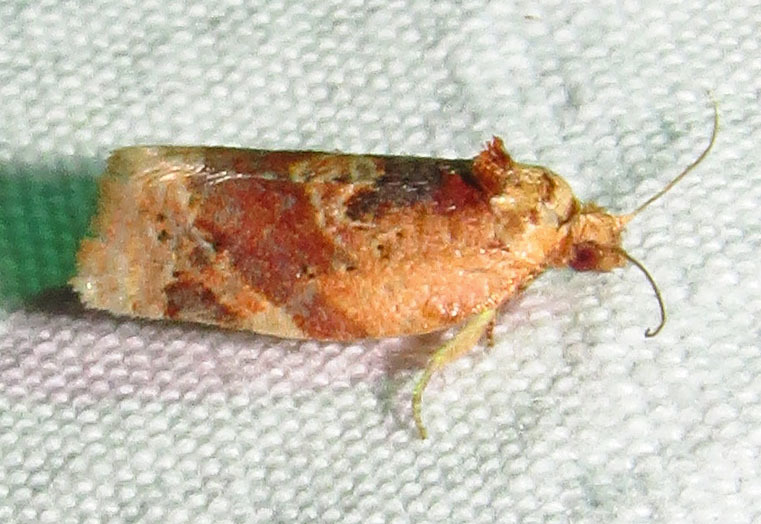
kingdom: Animalia
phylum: Arthropoda
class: Insecta
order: Lepidoptera
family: Tortricidae
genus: Argyrotaenia
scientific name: Argyrotaenia velutinana
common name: Red-banded leafroller moth
